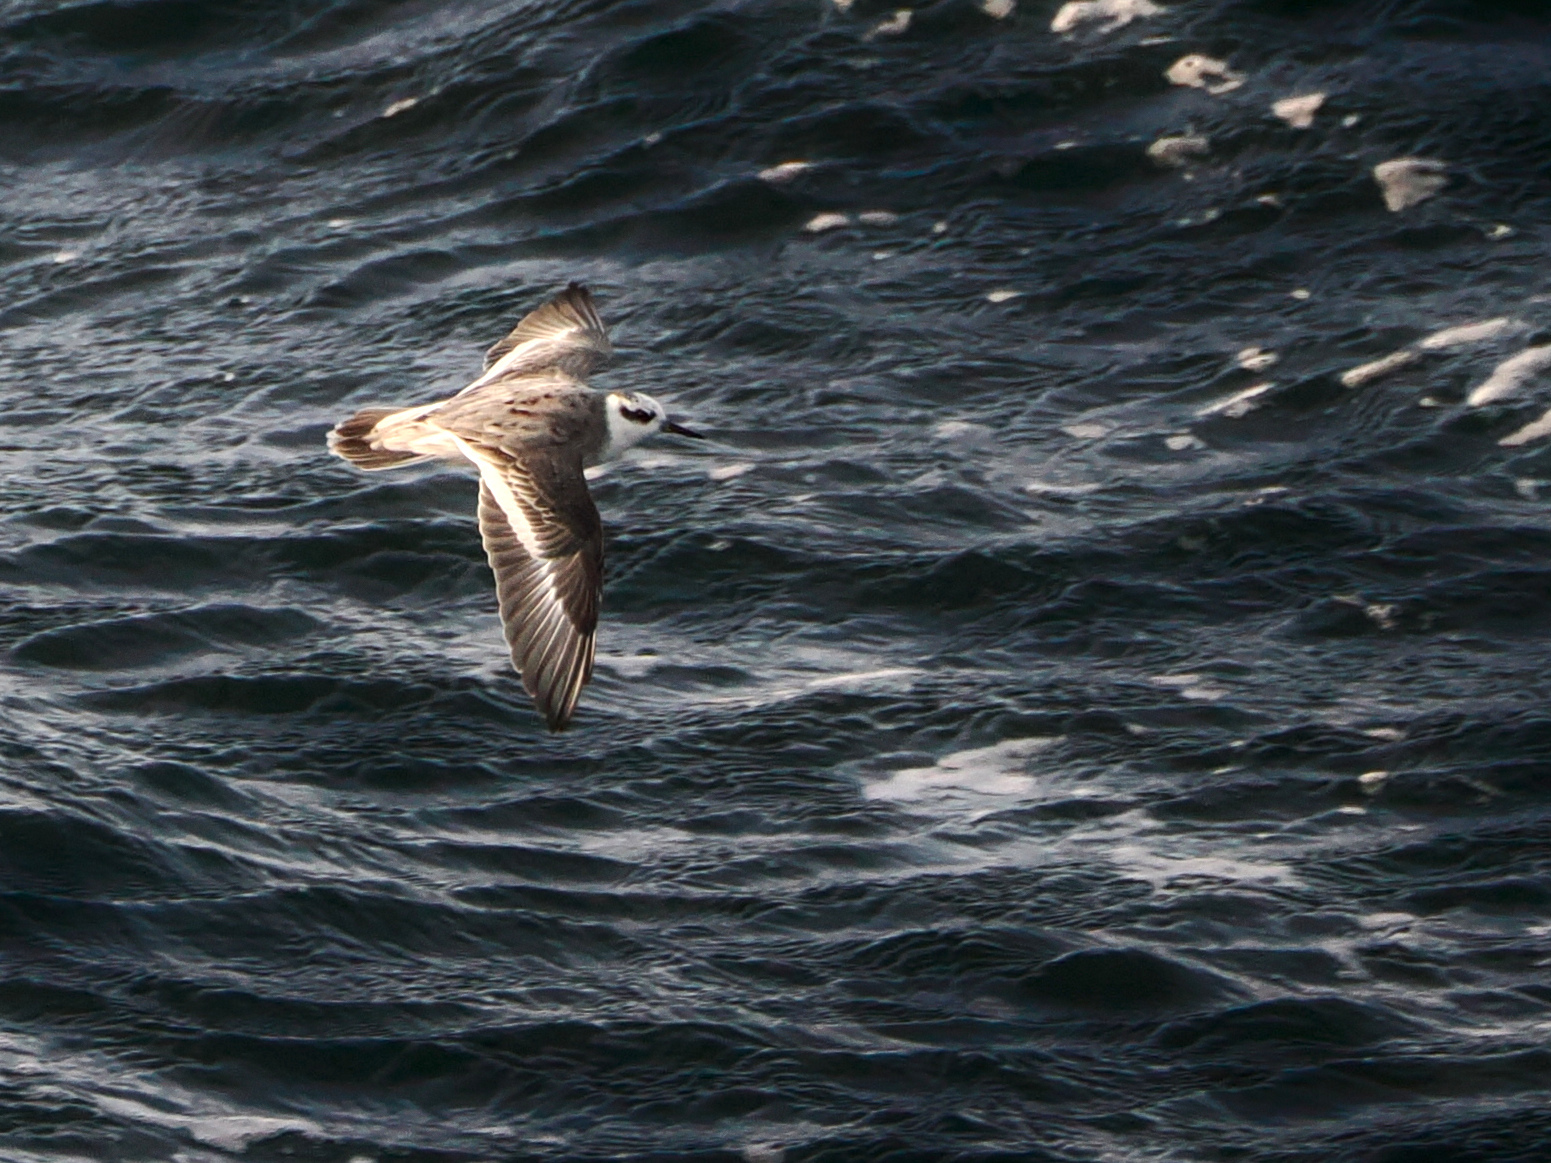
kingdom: Animalia
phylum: Chordata
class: Aves
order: Charadriiformes
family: Scolopacidae
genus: Phalaropus
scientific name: Phalaropus fulicarius
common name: Red phalarope
